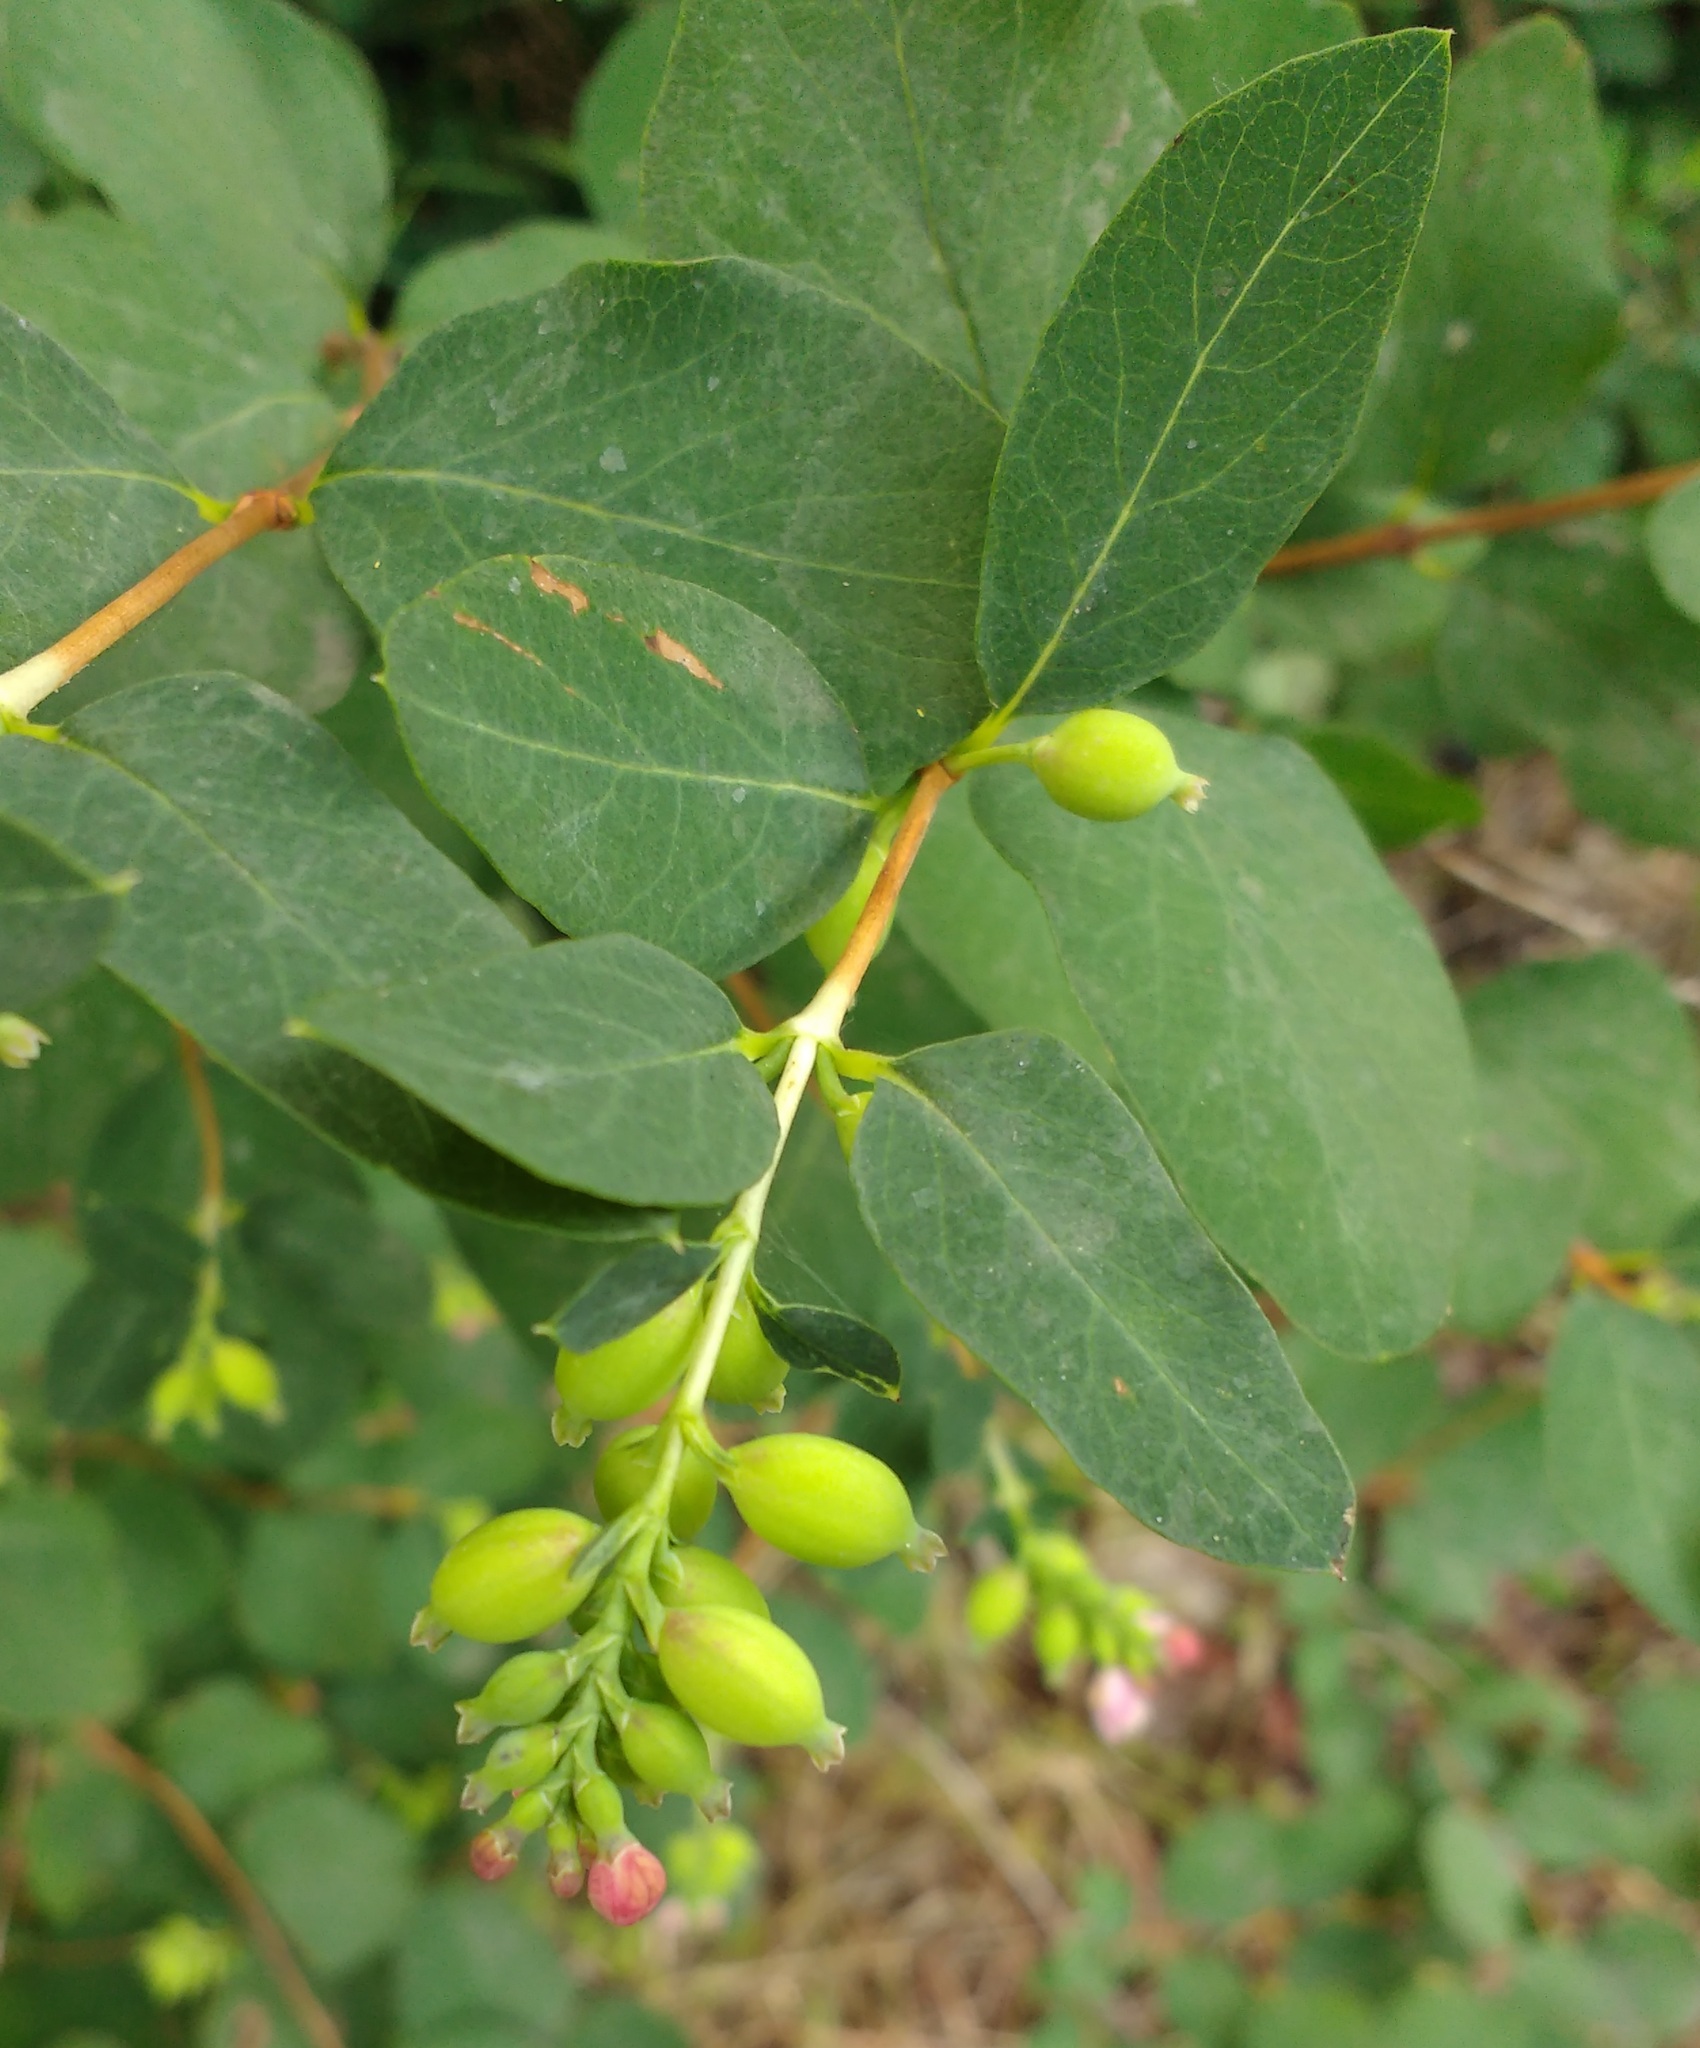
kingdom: Plantae
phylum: Tracheophyta
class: Magnoliopsida
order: Dipsacales
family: Caprifoliaceae
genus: Symphoricarpos
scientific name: Symphoricarpos albus
